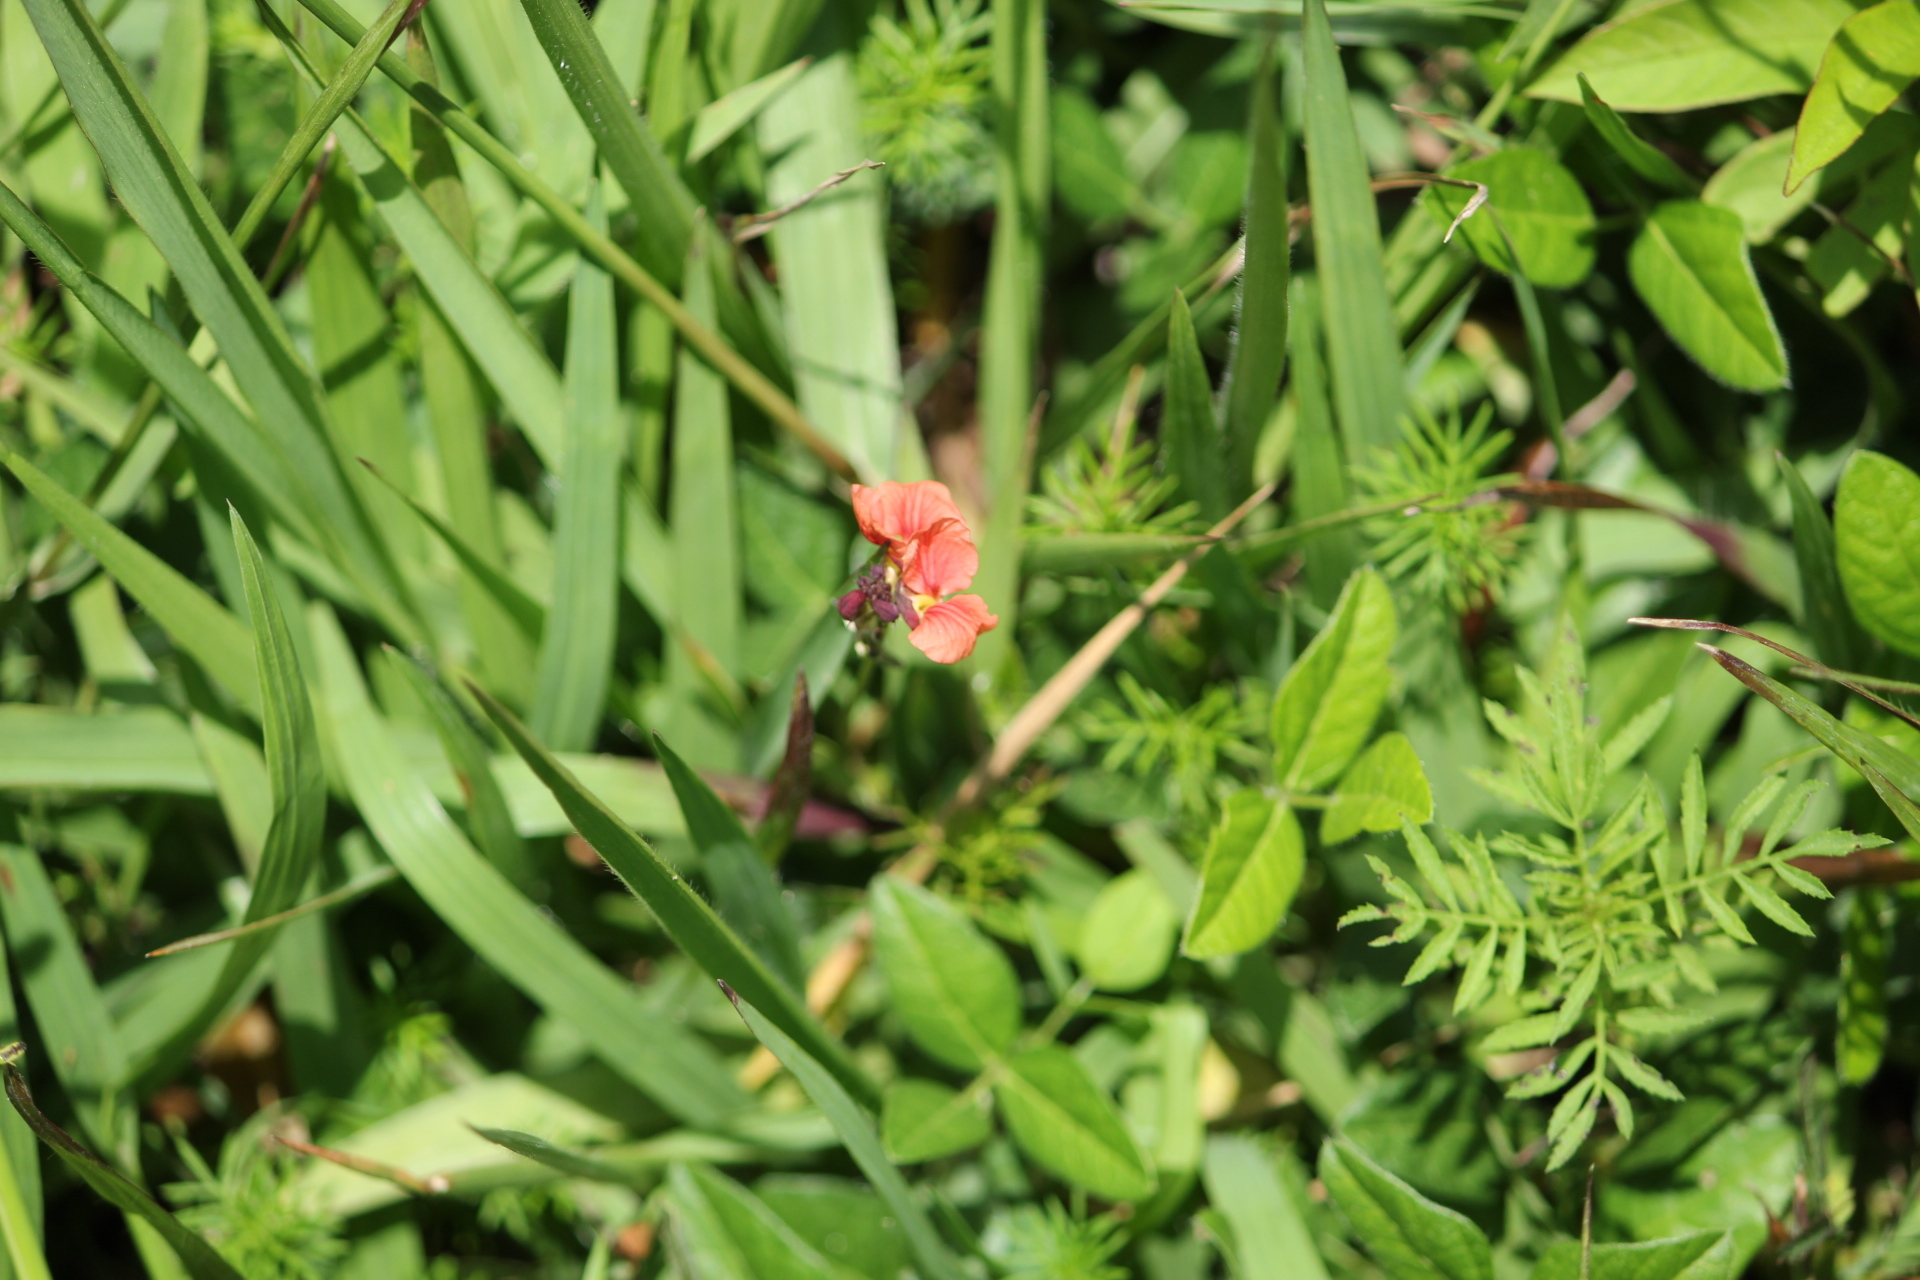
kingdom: Plantae
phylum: Tracheophyta
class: Magnoliopsida
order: Fabales
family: Fabaceae
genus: Macroptilium
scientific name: Macroptilium gibbosifolium
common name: Variableleaf bushbean
